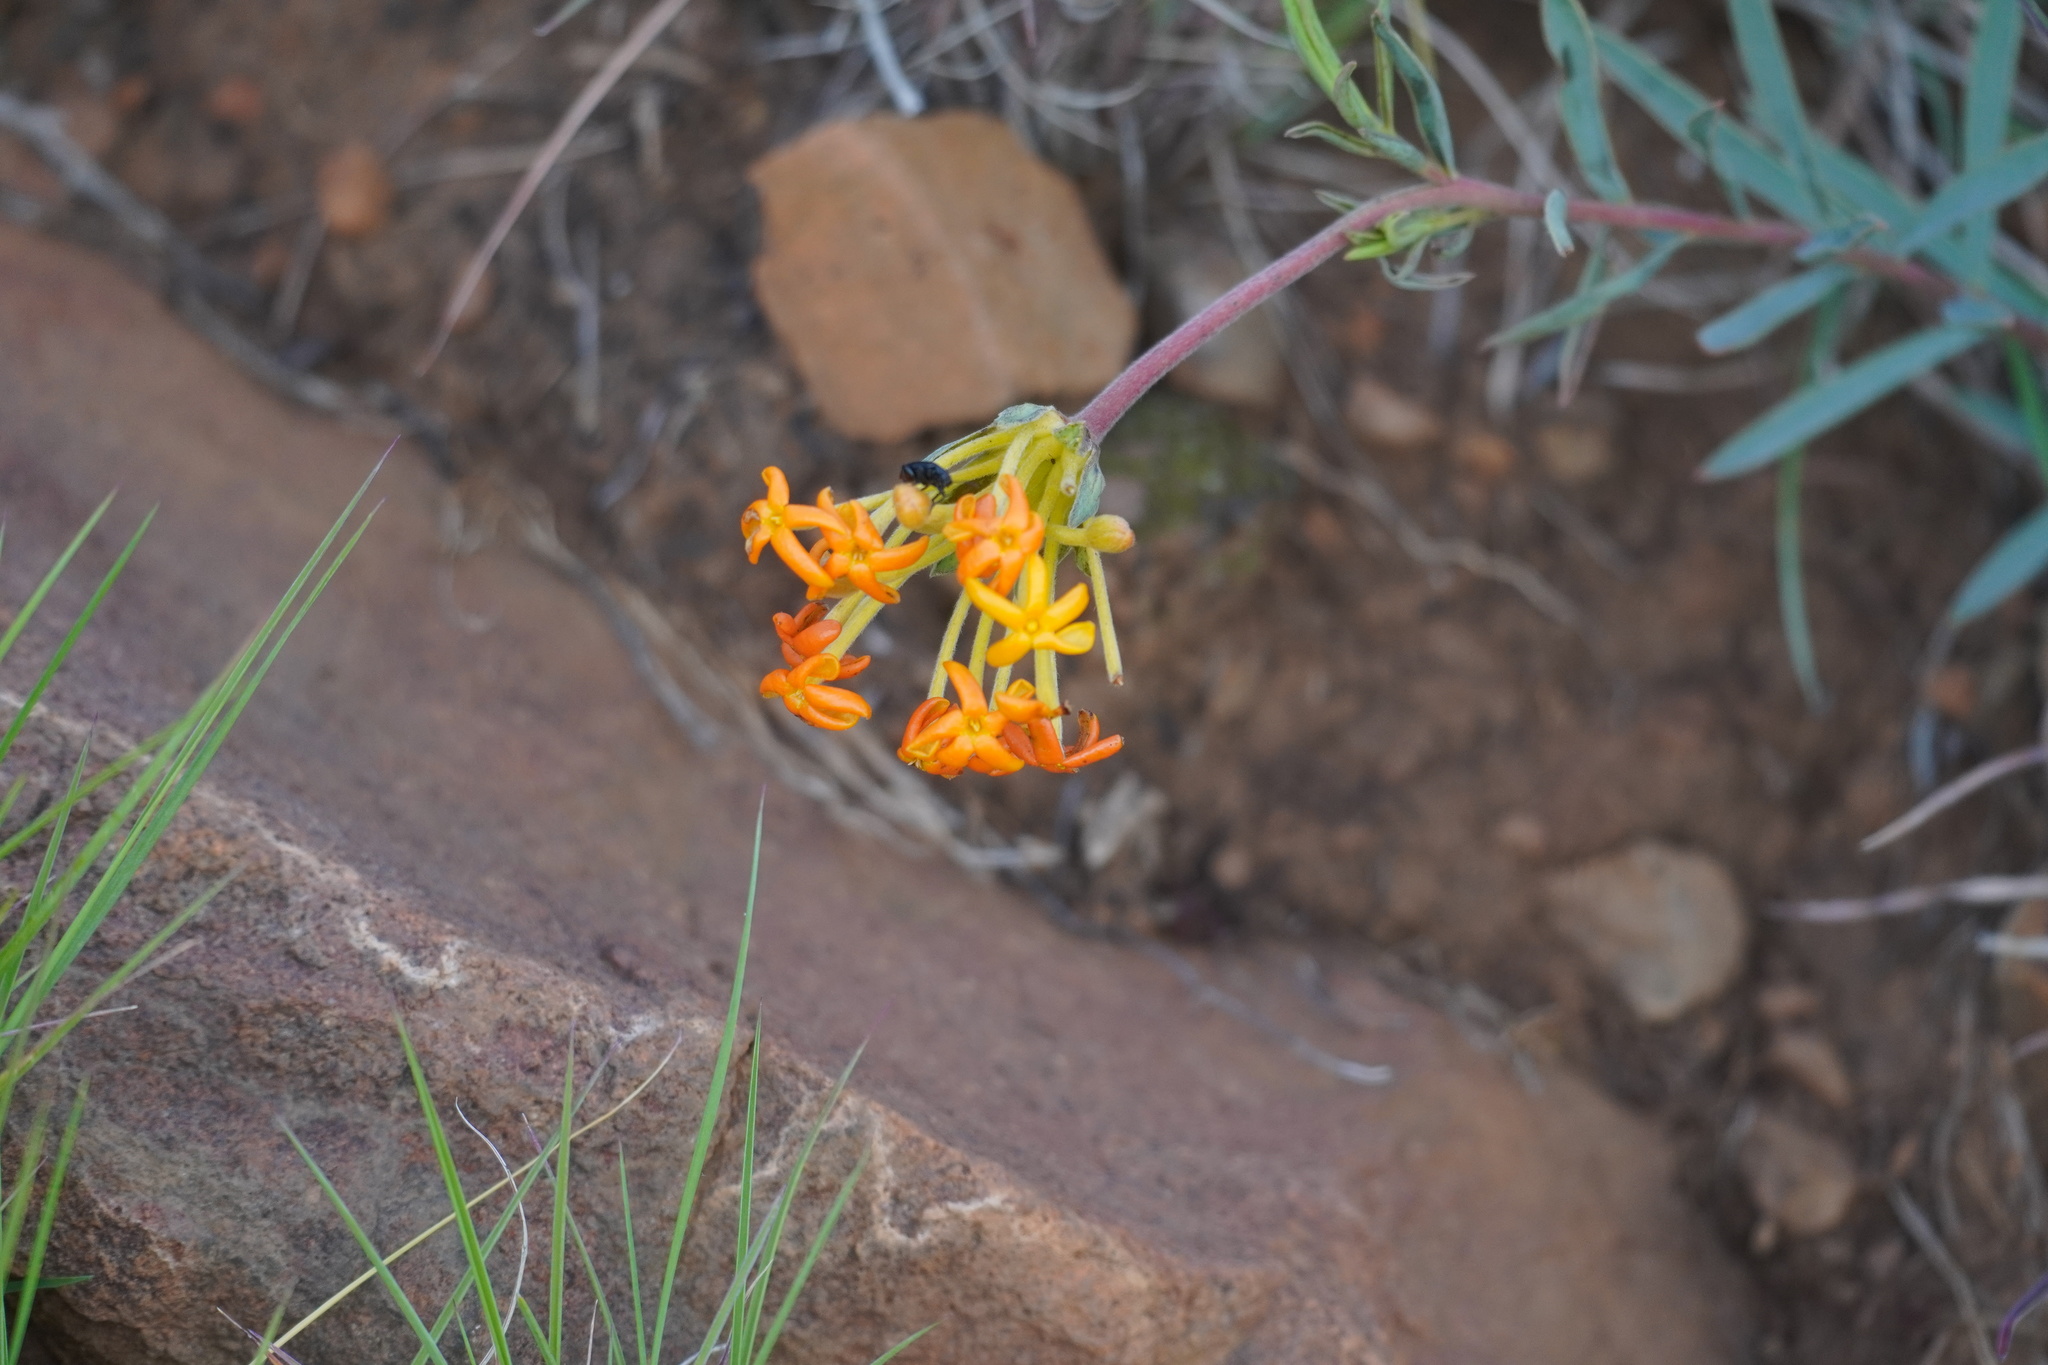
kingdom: Plantae
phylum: Tracheophyta
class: Magnoliopsida
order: Malvales
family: Thymelaeaceae
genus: Gnidia
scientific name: Gnidia capitata
